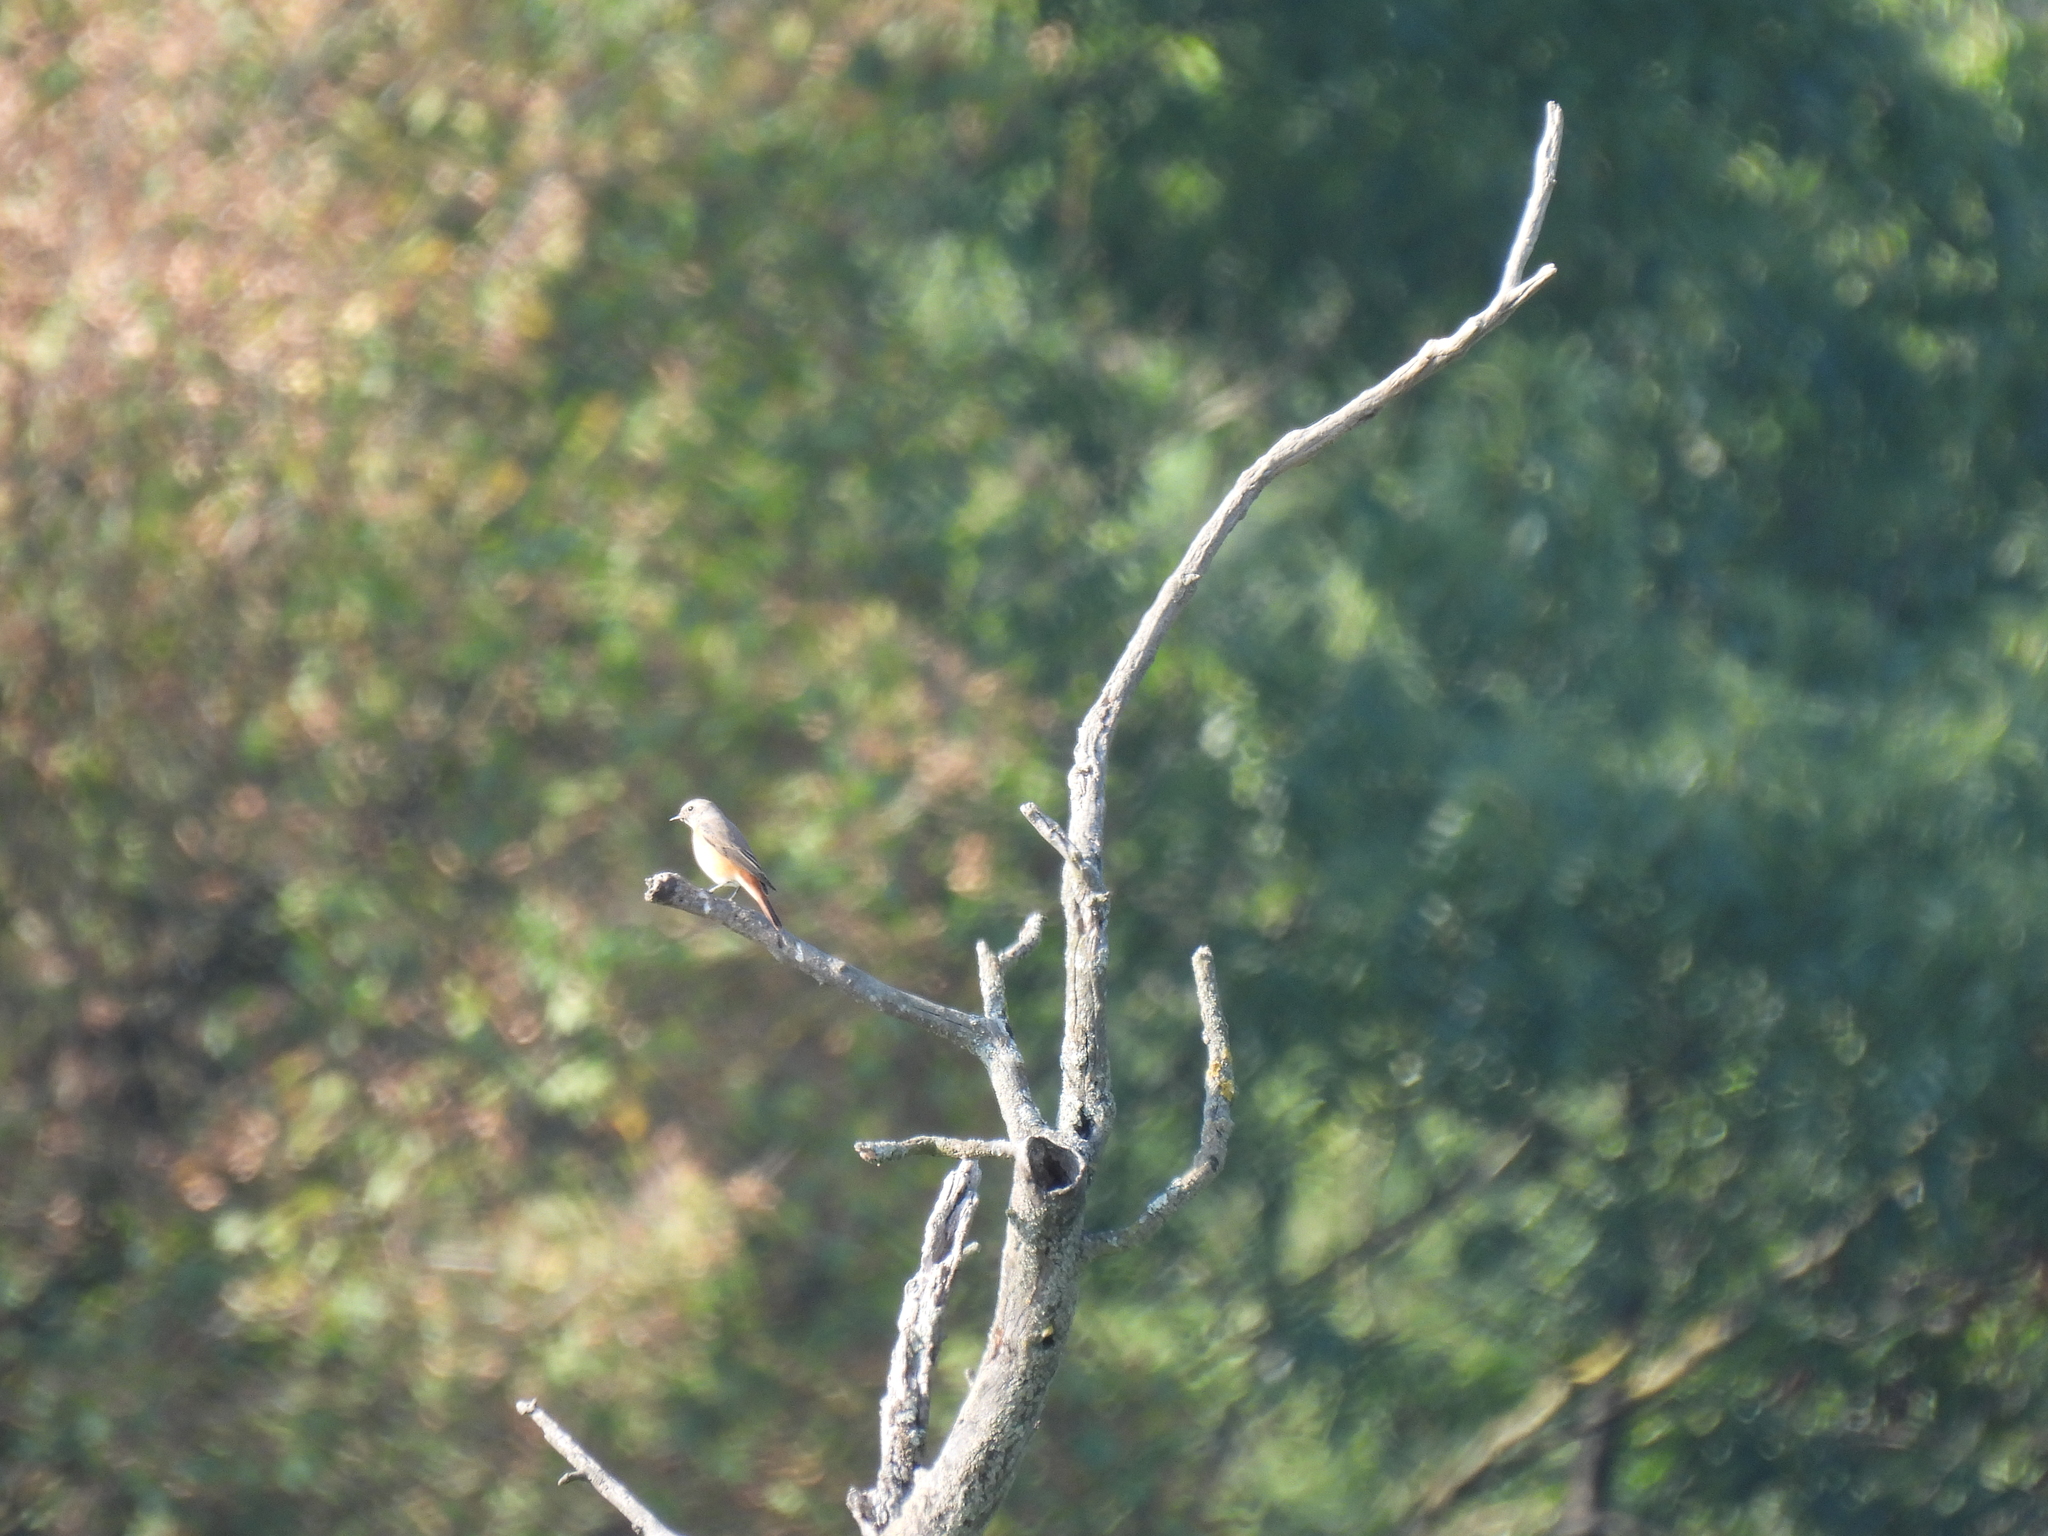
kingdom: Animalia
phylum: Chordata
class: Aves
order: Passeriformes
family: Muscicapidae
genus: Phoenicurus
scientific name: Phoenicurus ochruros
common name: Black redstart
